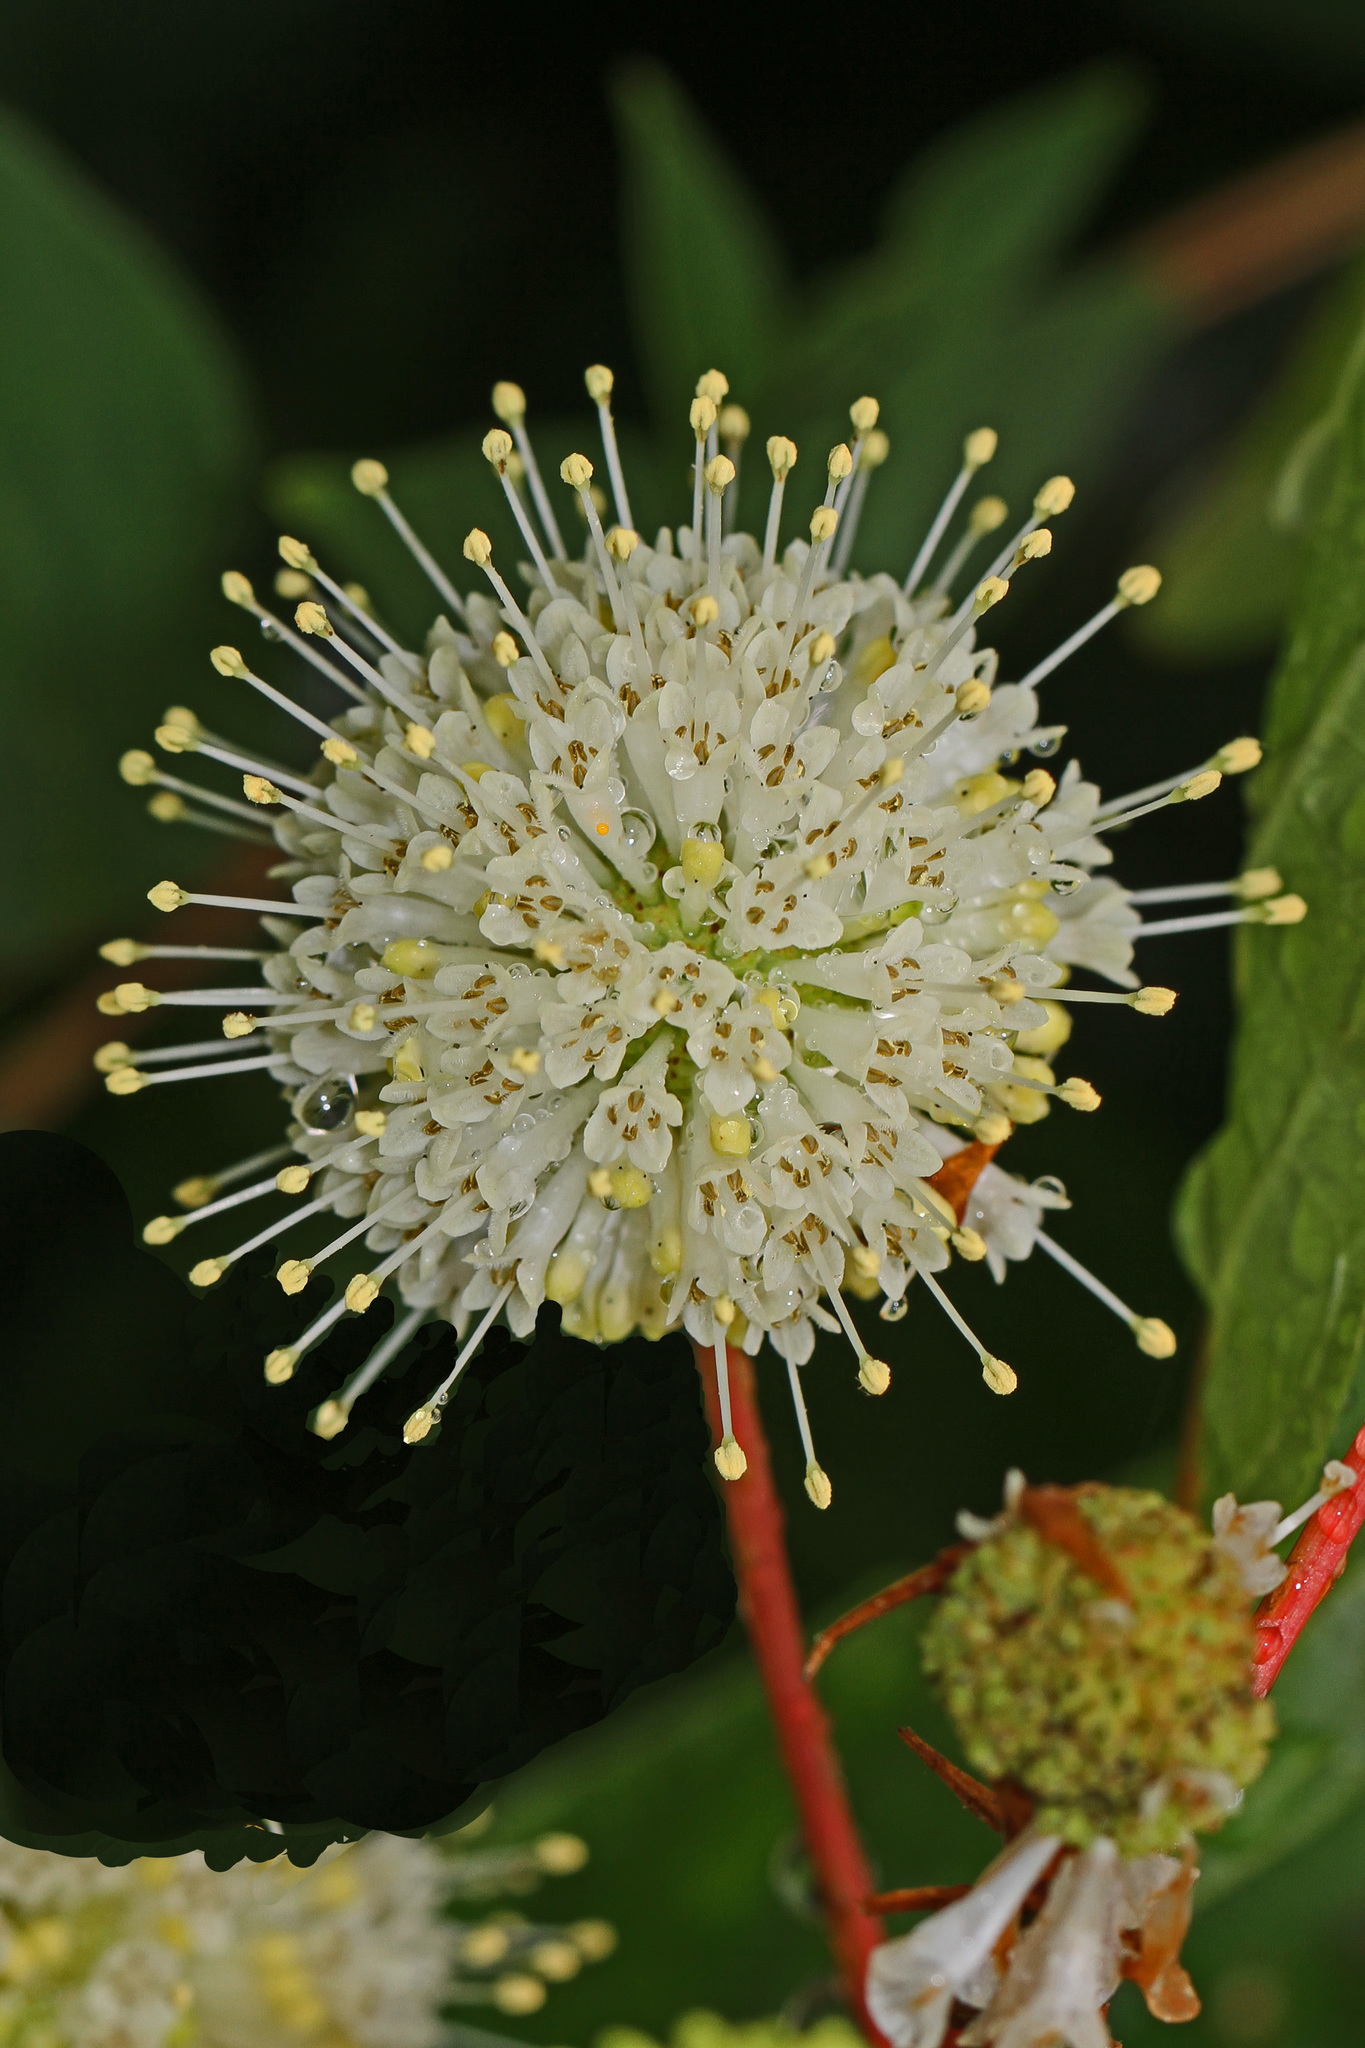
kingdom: Plantae
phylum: Tracheophyta
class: Magnoliopsida
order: Gentianales
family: Rubiaceae
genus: Cephalanthus
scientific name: Cephalanthus occidentalis
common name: Button-willow
